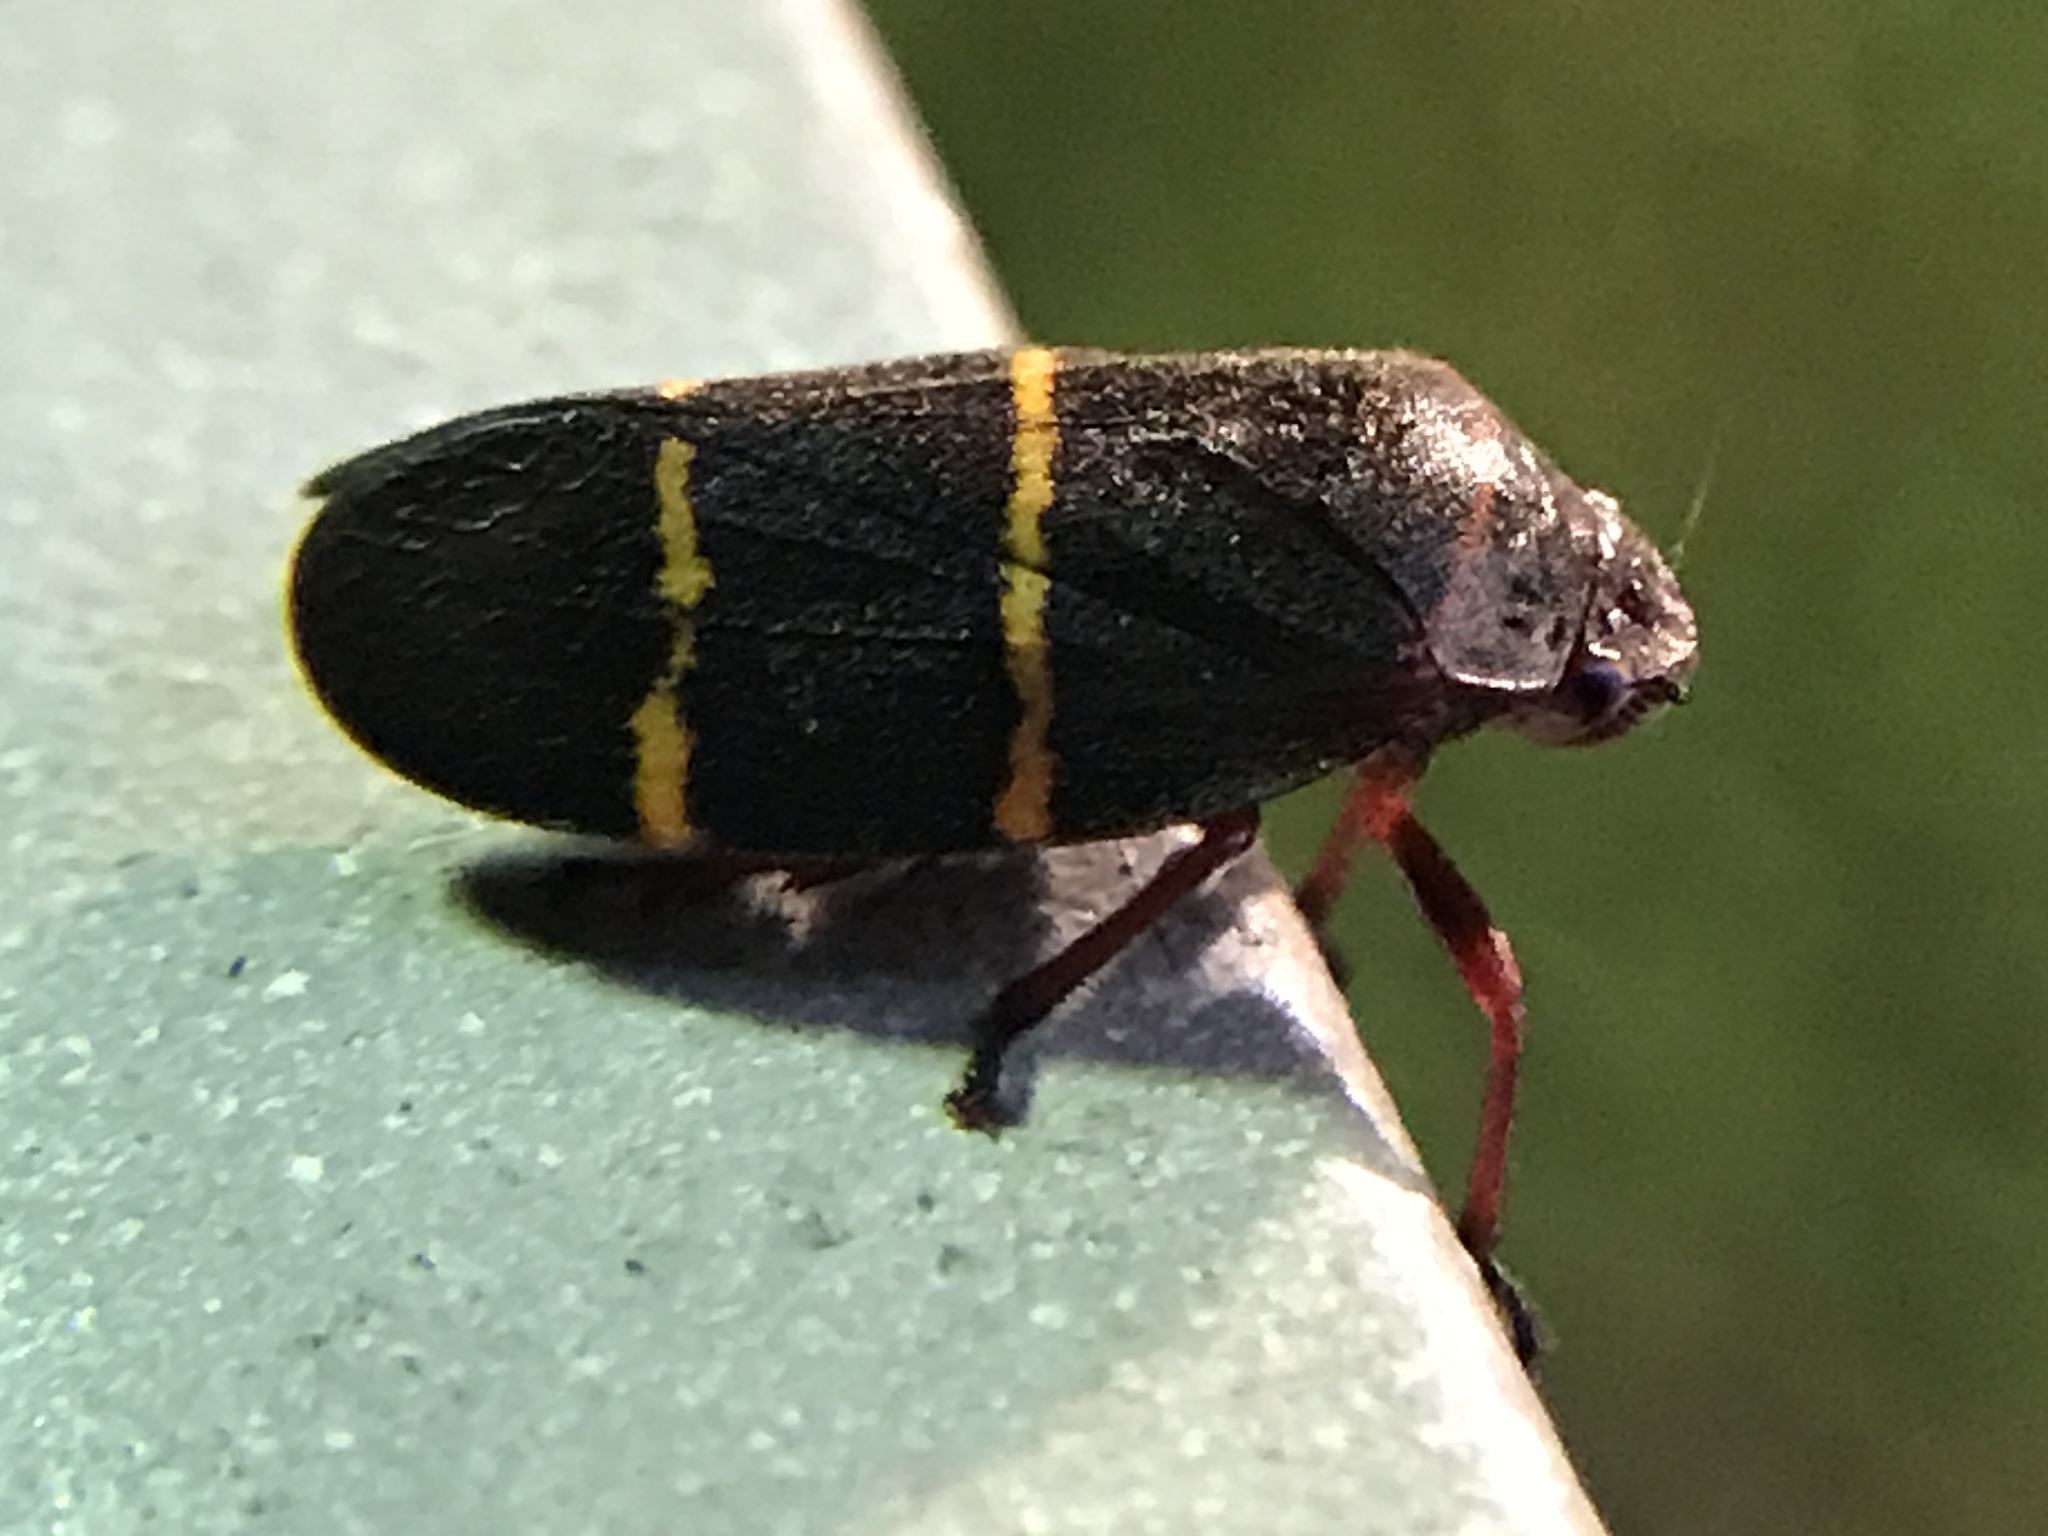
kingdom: Animalia
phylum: Arthropoda
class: Insecta
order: Hemiptera
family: Cercopidae
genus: Prosapia
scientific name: Prosapia bicincta
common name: Twolined spittlebug
